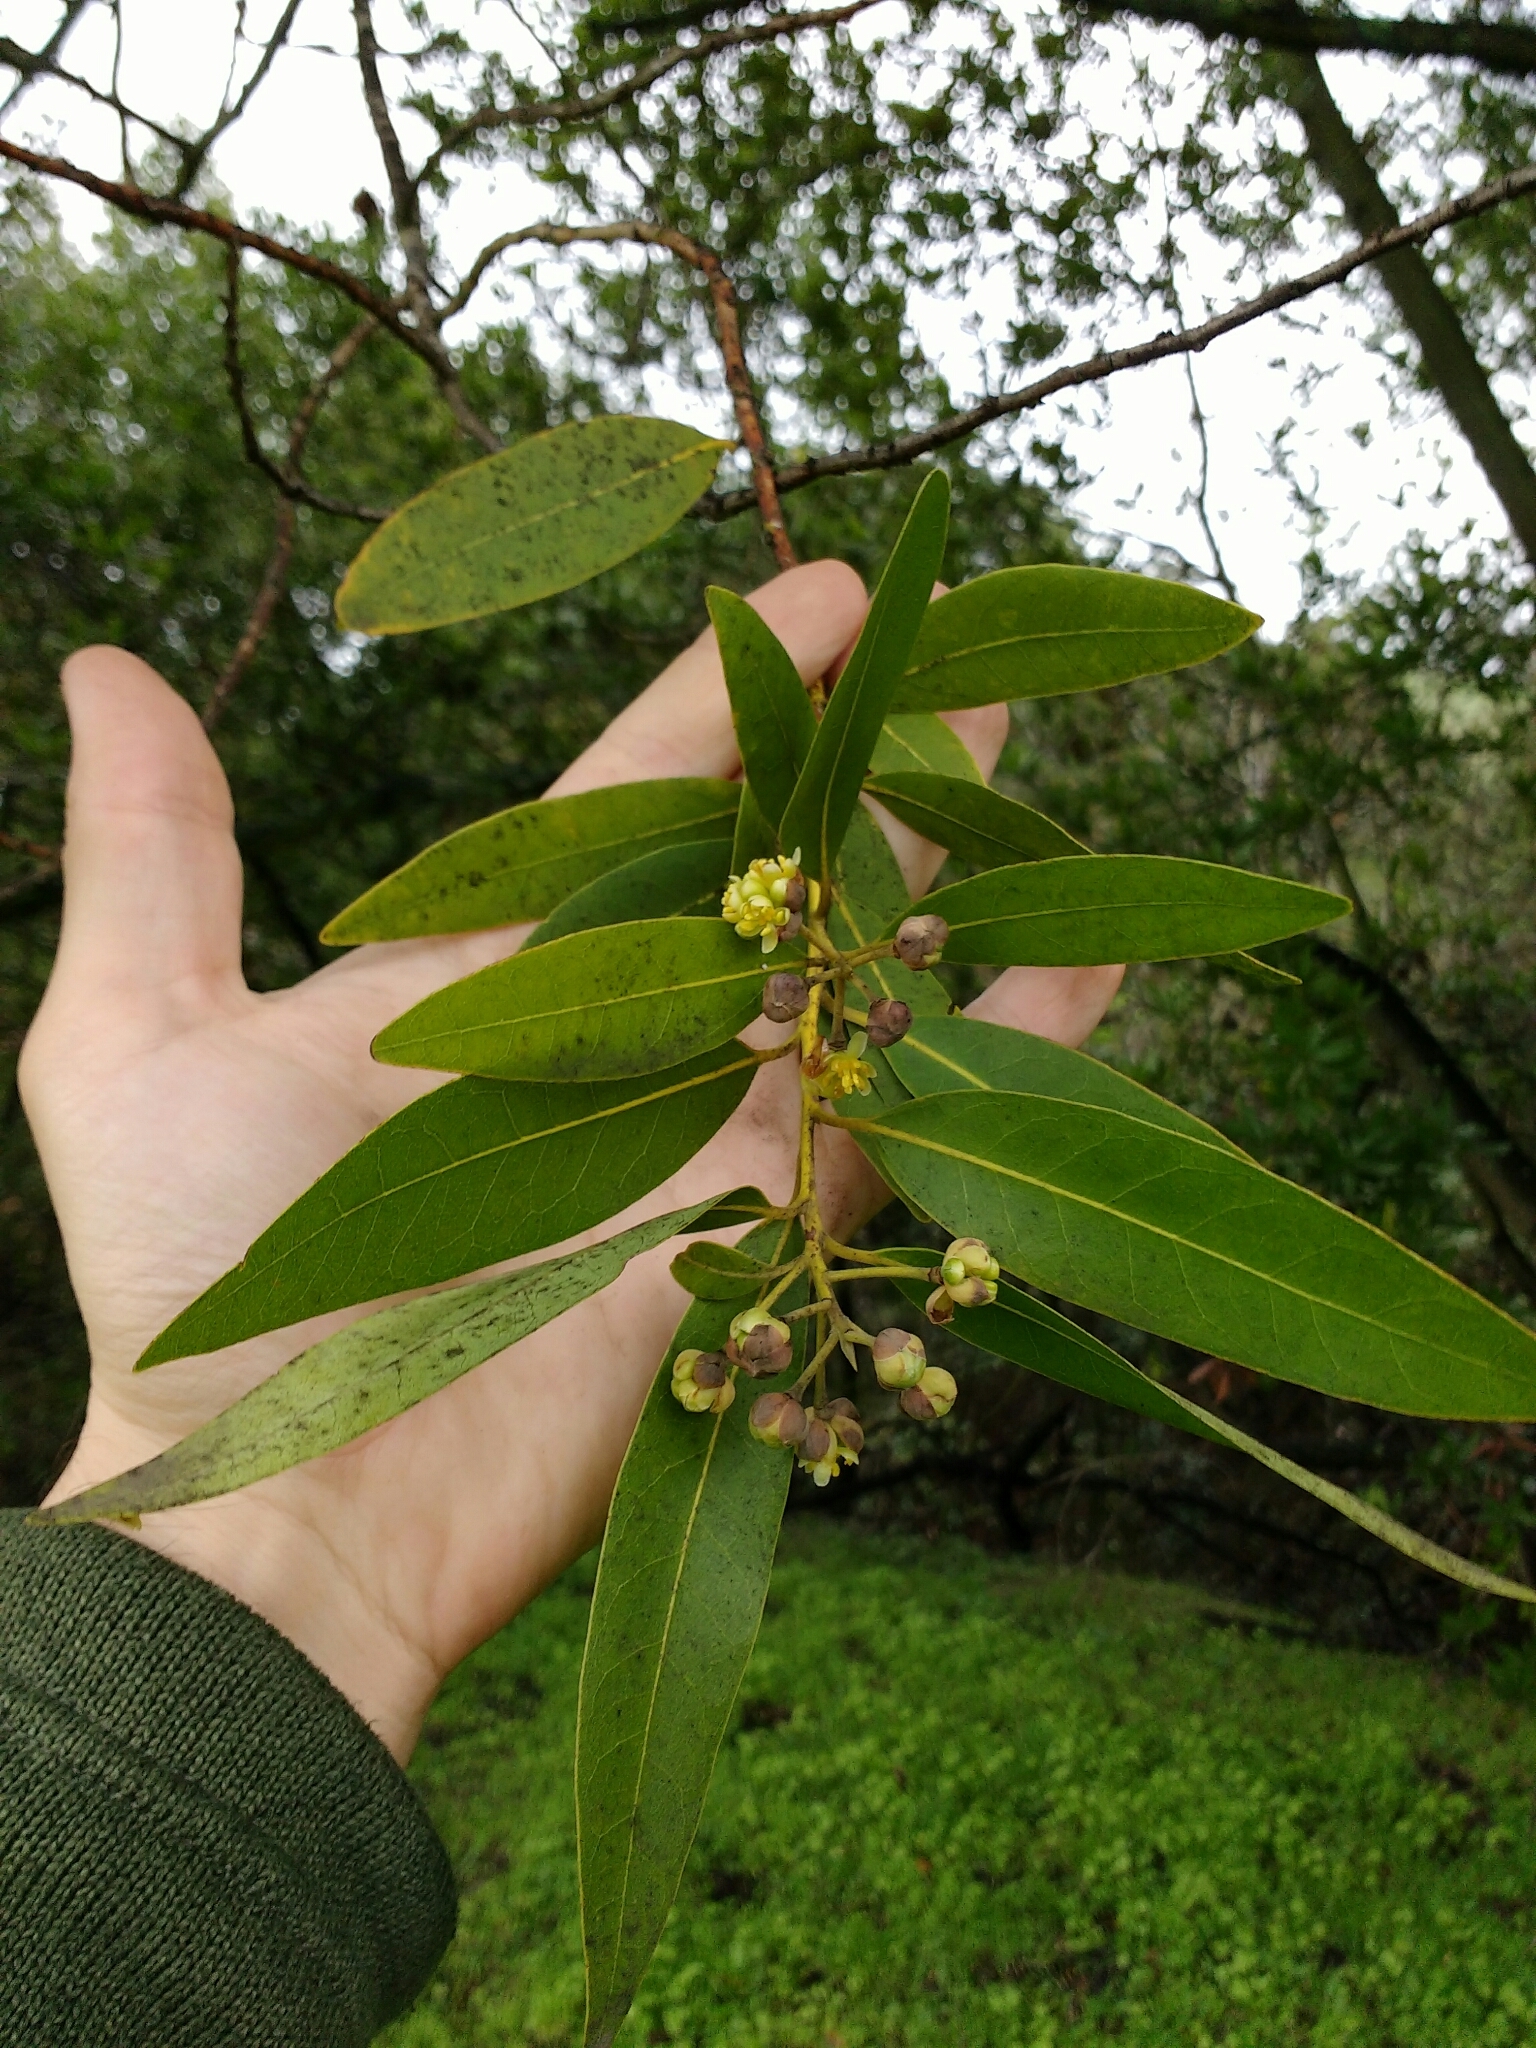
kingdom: Plantae
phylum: Tracheophyta
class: Magnoliopsida
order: Laurales
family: Lauraceae
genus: Umbellularia
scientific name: Umbellularia californica
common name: California bay
